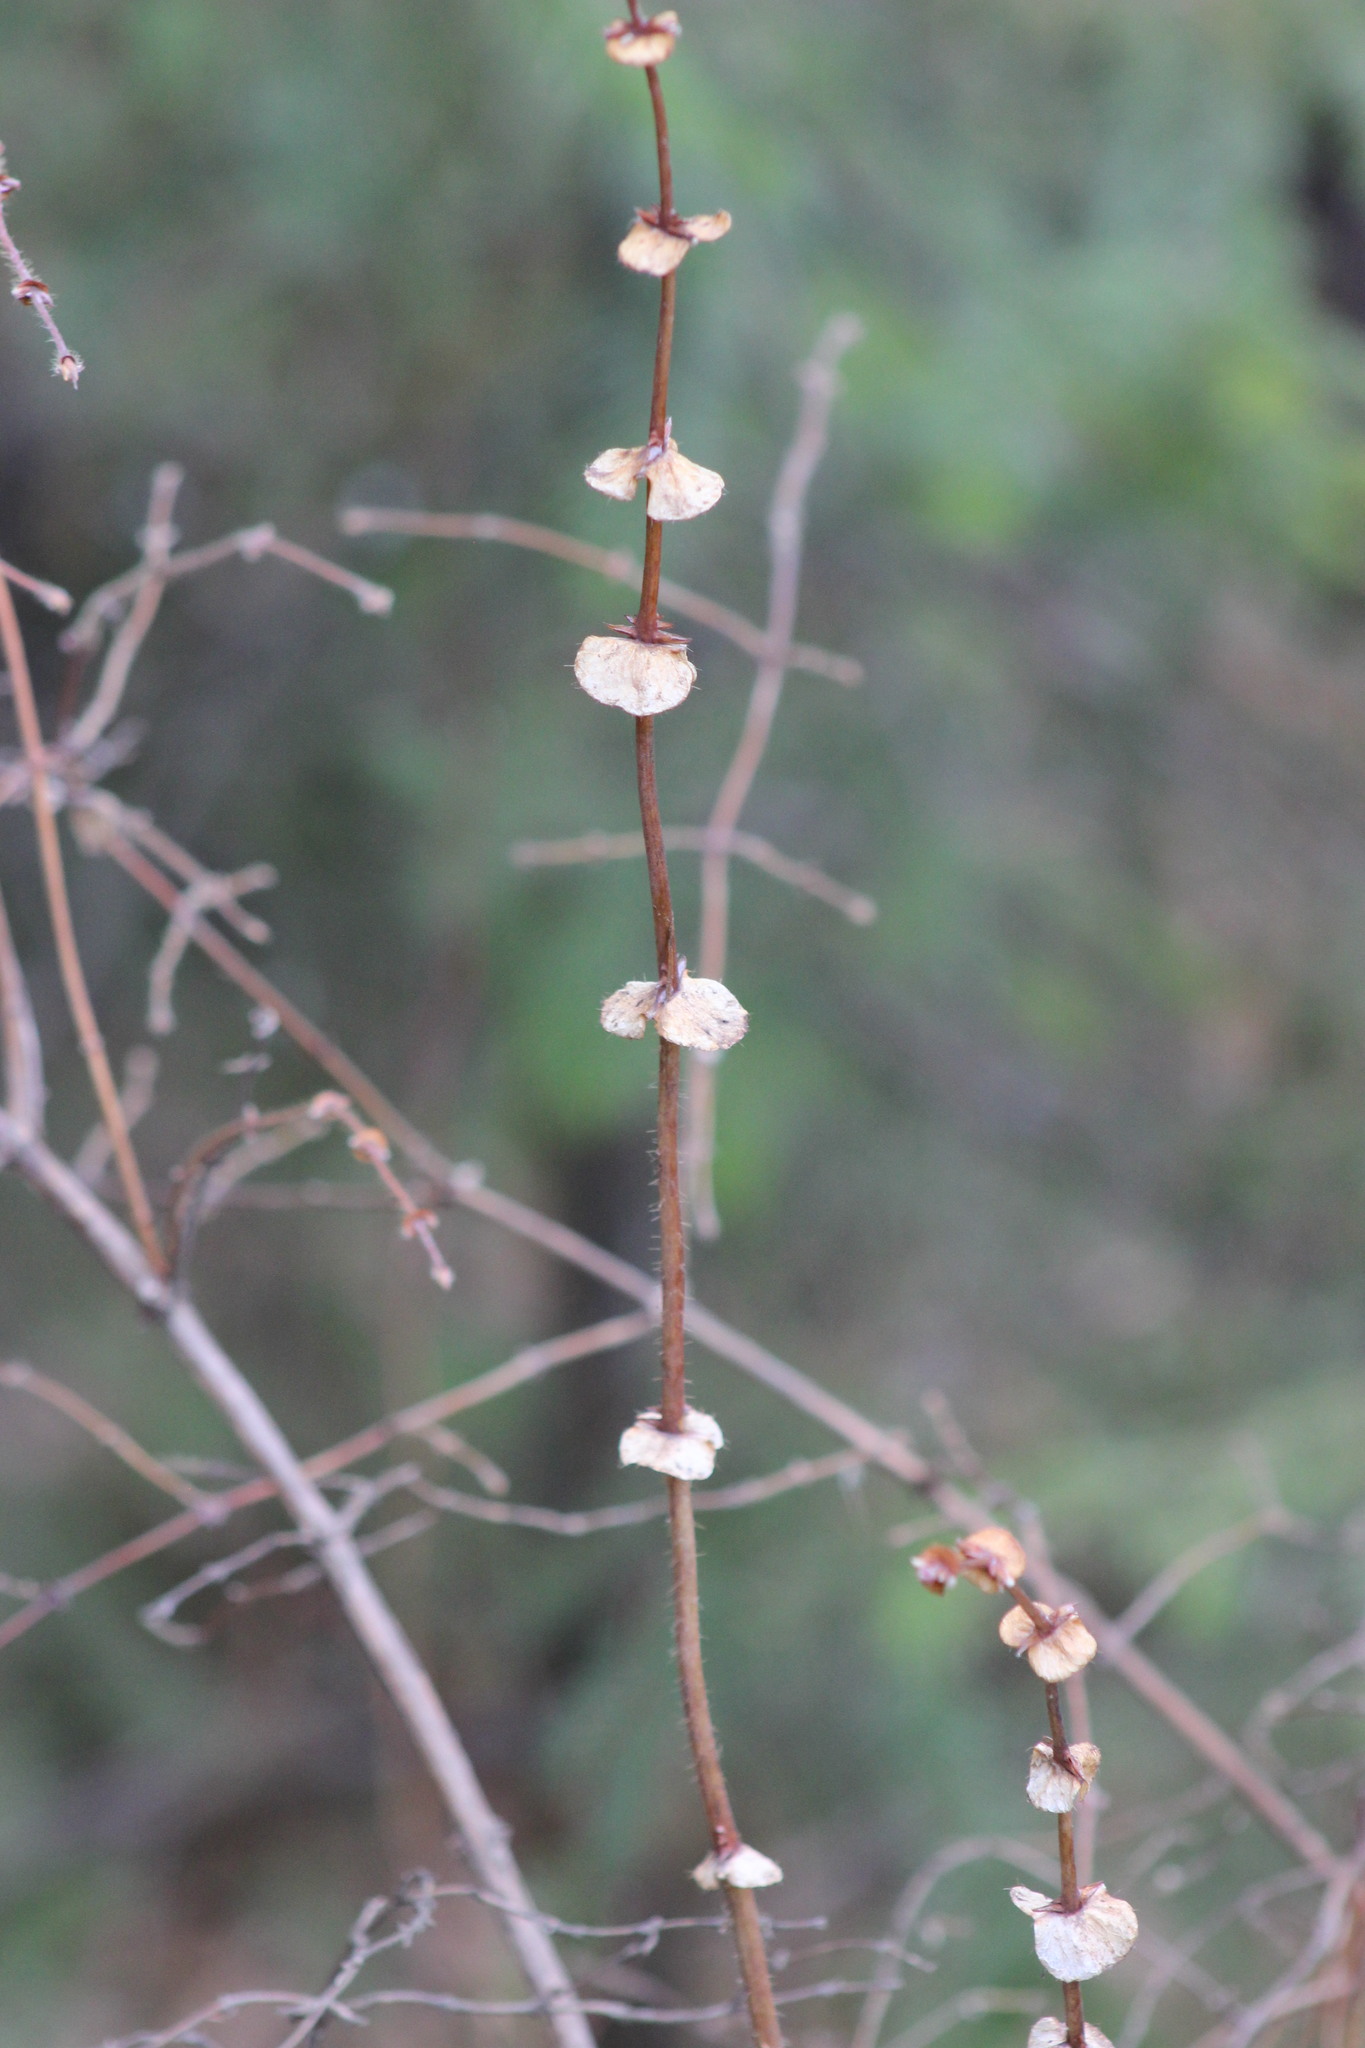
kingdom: Plantae
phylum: Tracheophyta
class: Magnoliopsida
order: Dipsacales
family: Caprifoliaceae
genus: Lonicera
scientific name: Lonicera caerulea
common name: Blue honeysuckle
